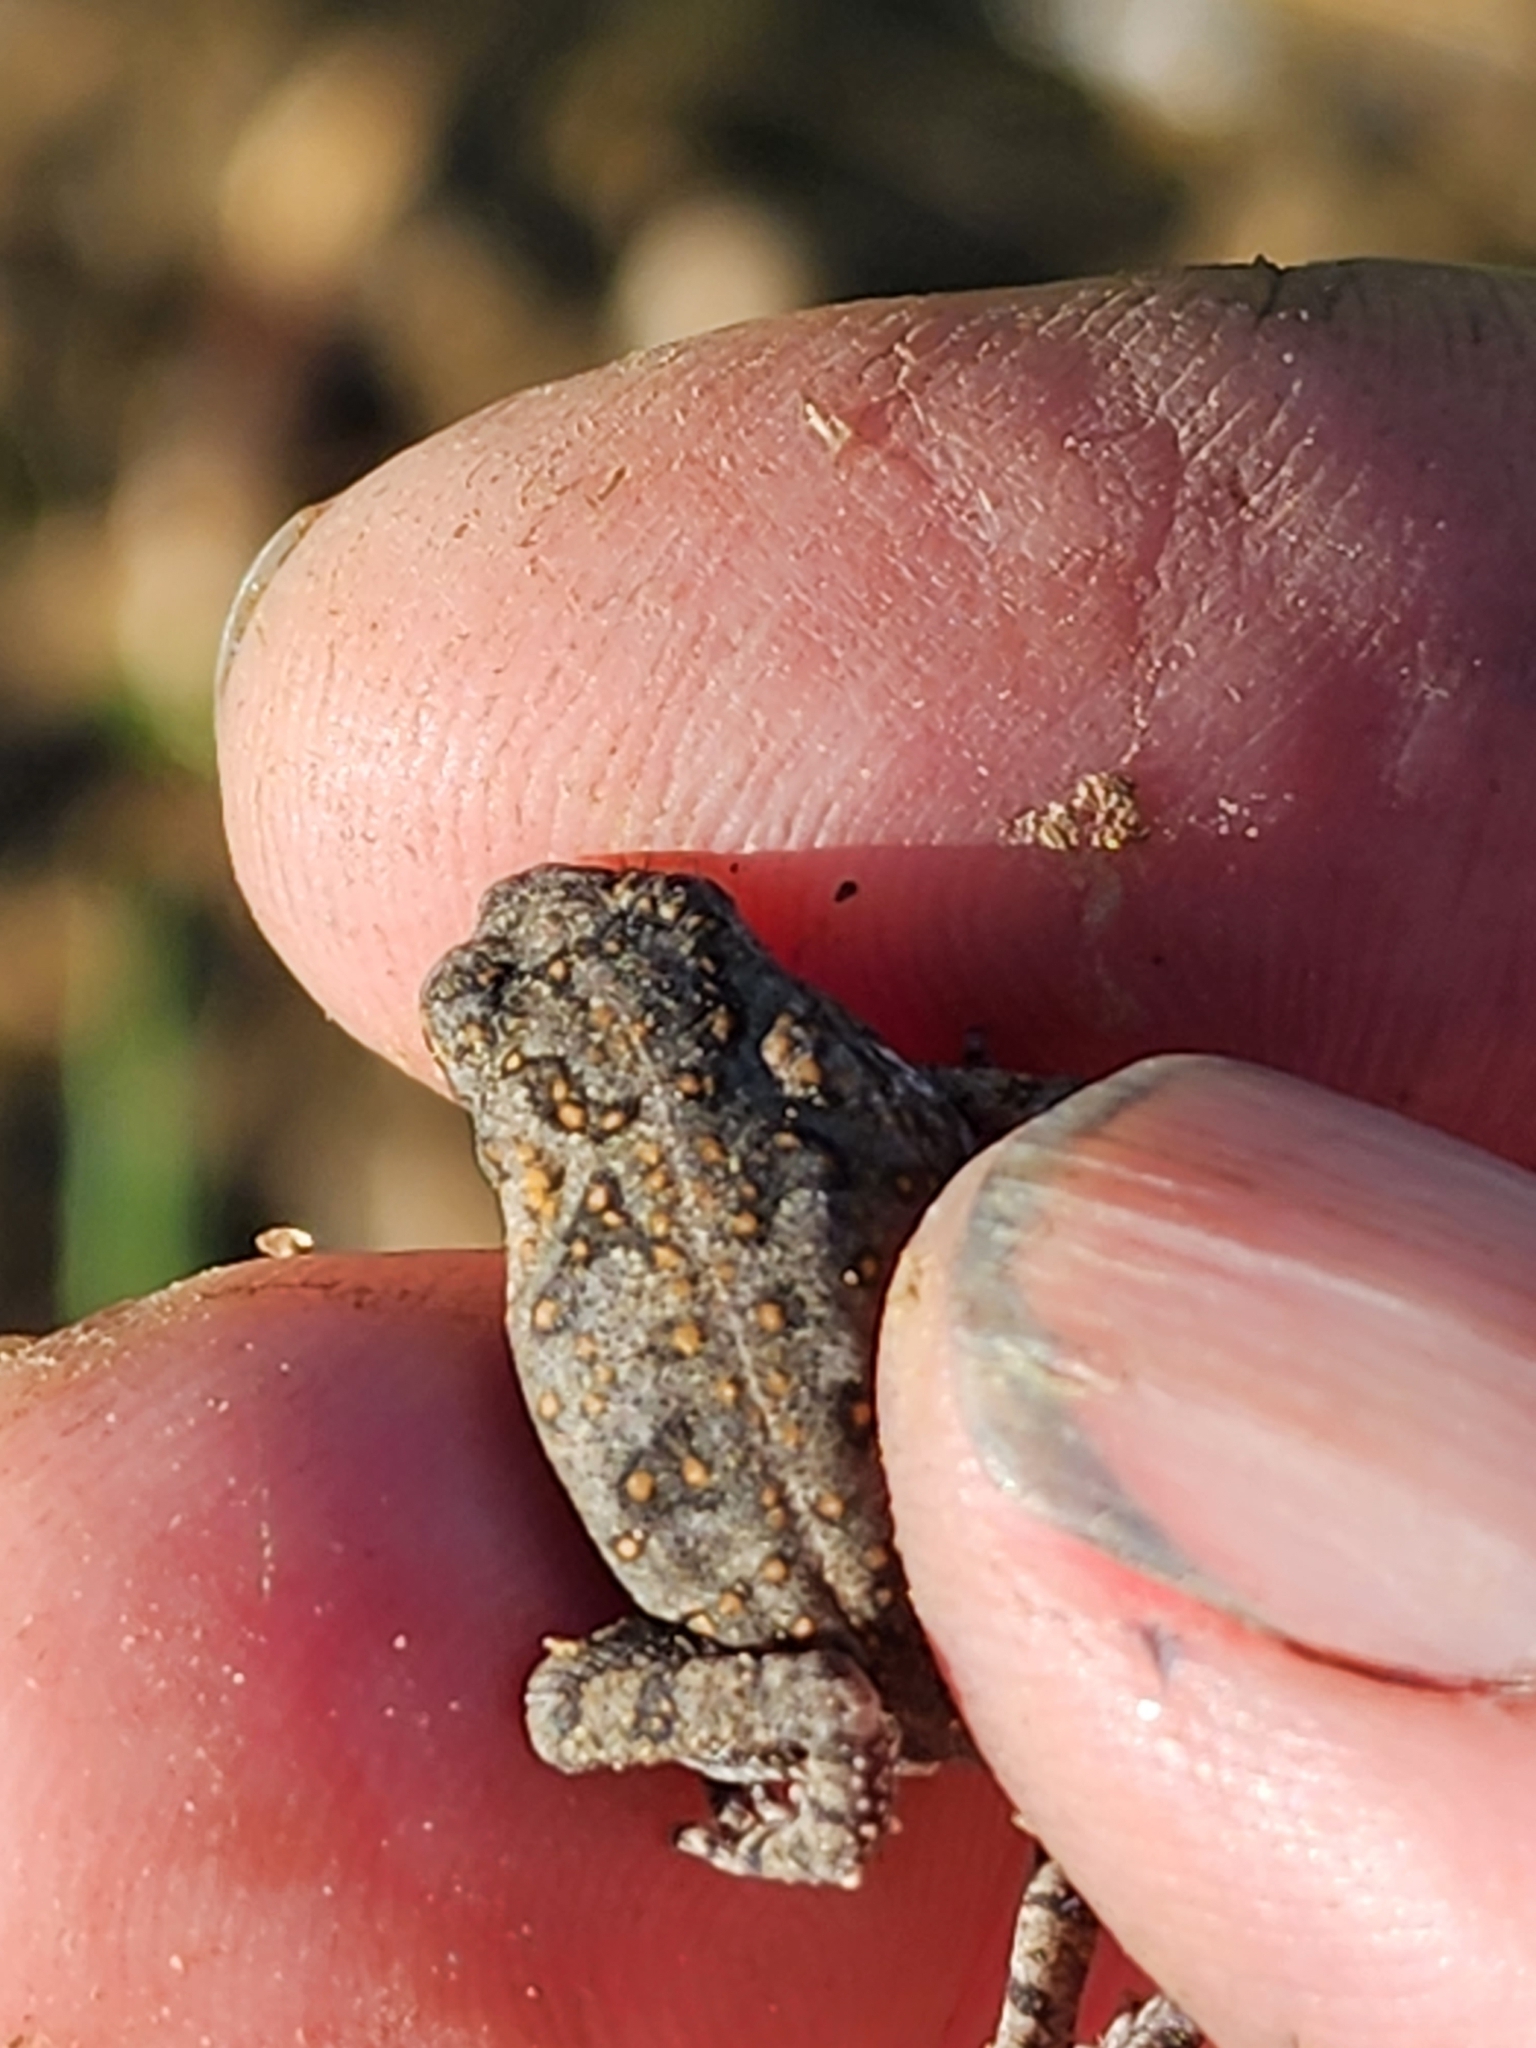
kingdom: Animalia
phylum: Chordata
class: Amphibia
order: Anura
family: Bufonidae
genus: Rhinella
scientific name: Rhinella marina
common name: Cane toad
